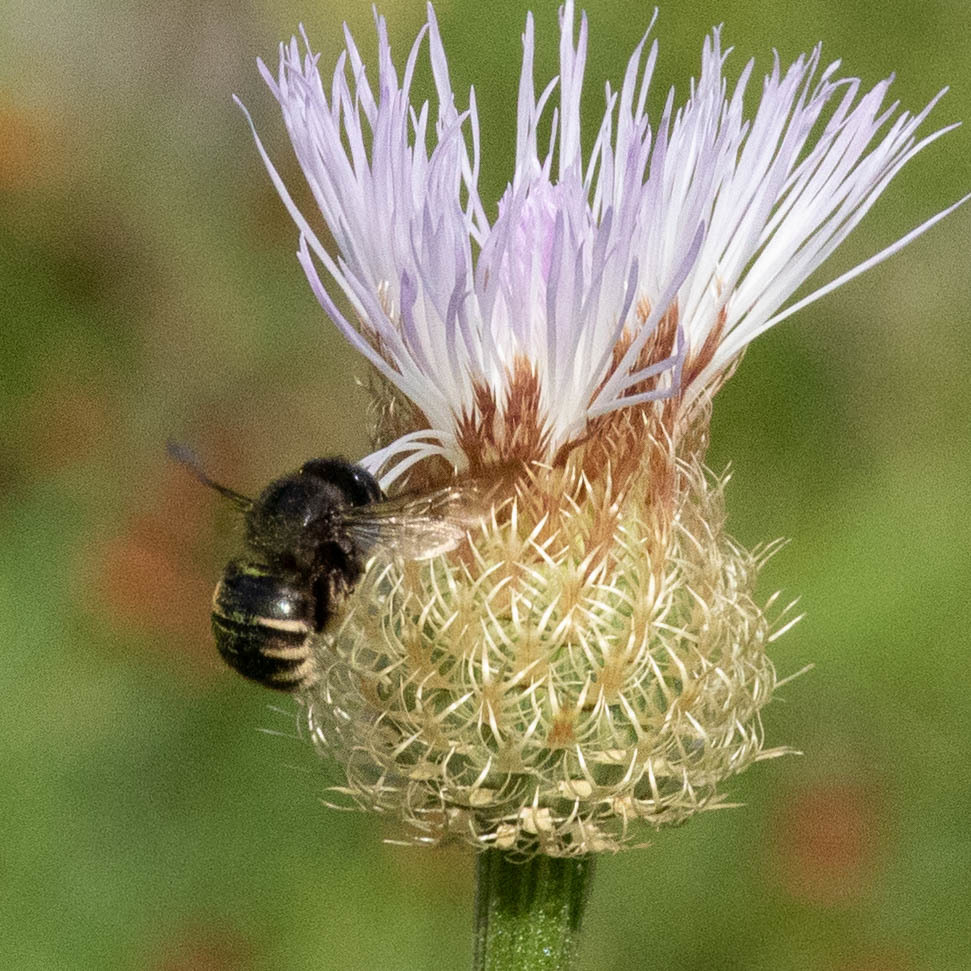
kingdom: Animalia
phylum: Arthropoda
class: Insecta
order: Hymenoptera
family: Apidae
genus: Xylocopa
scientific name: Xylocopa tabaniformis
